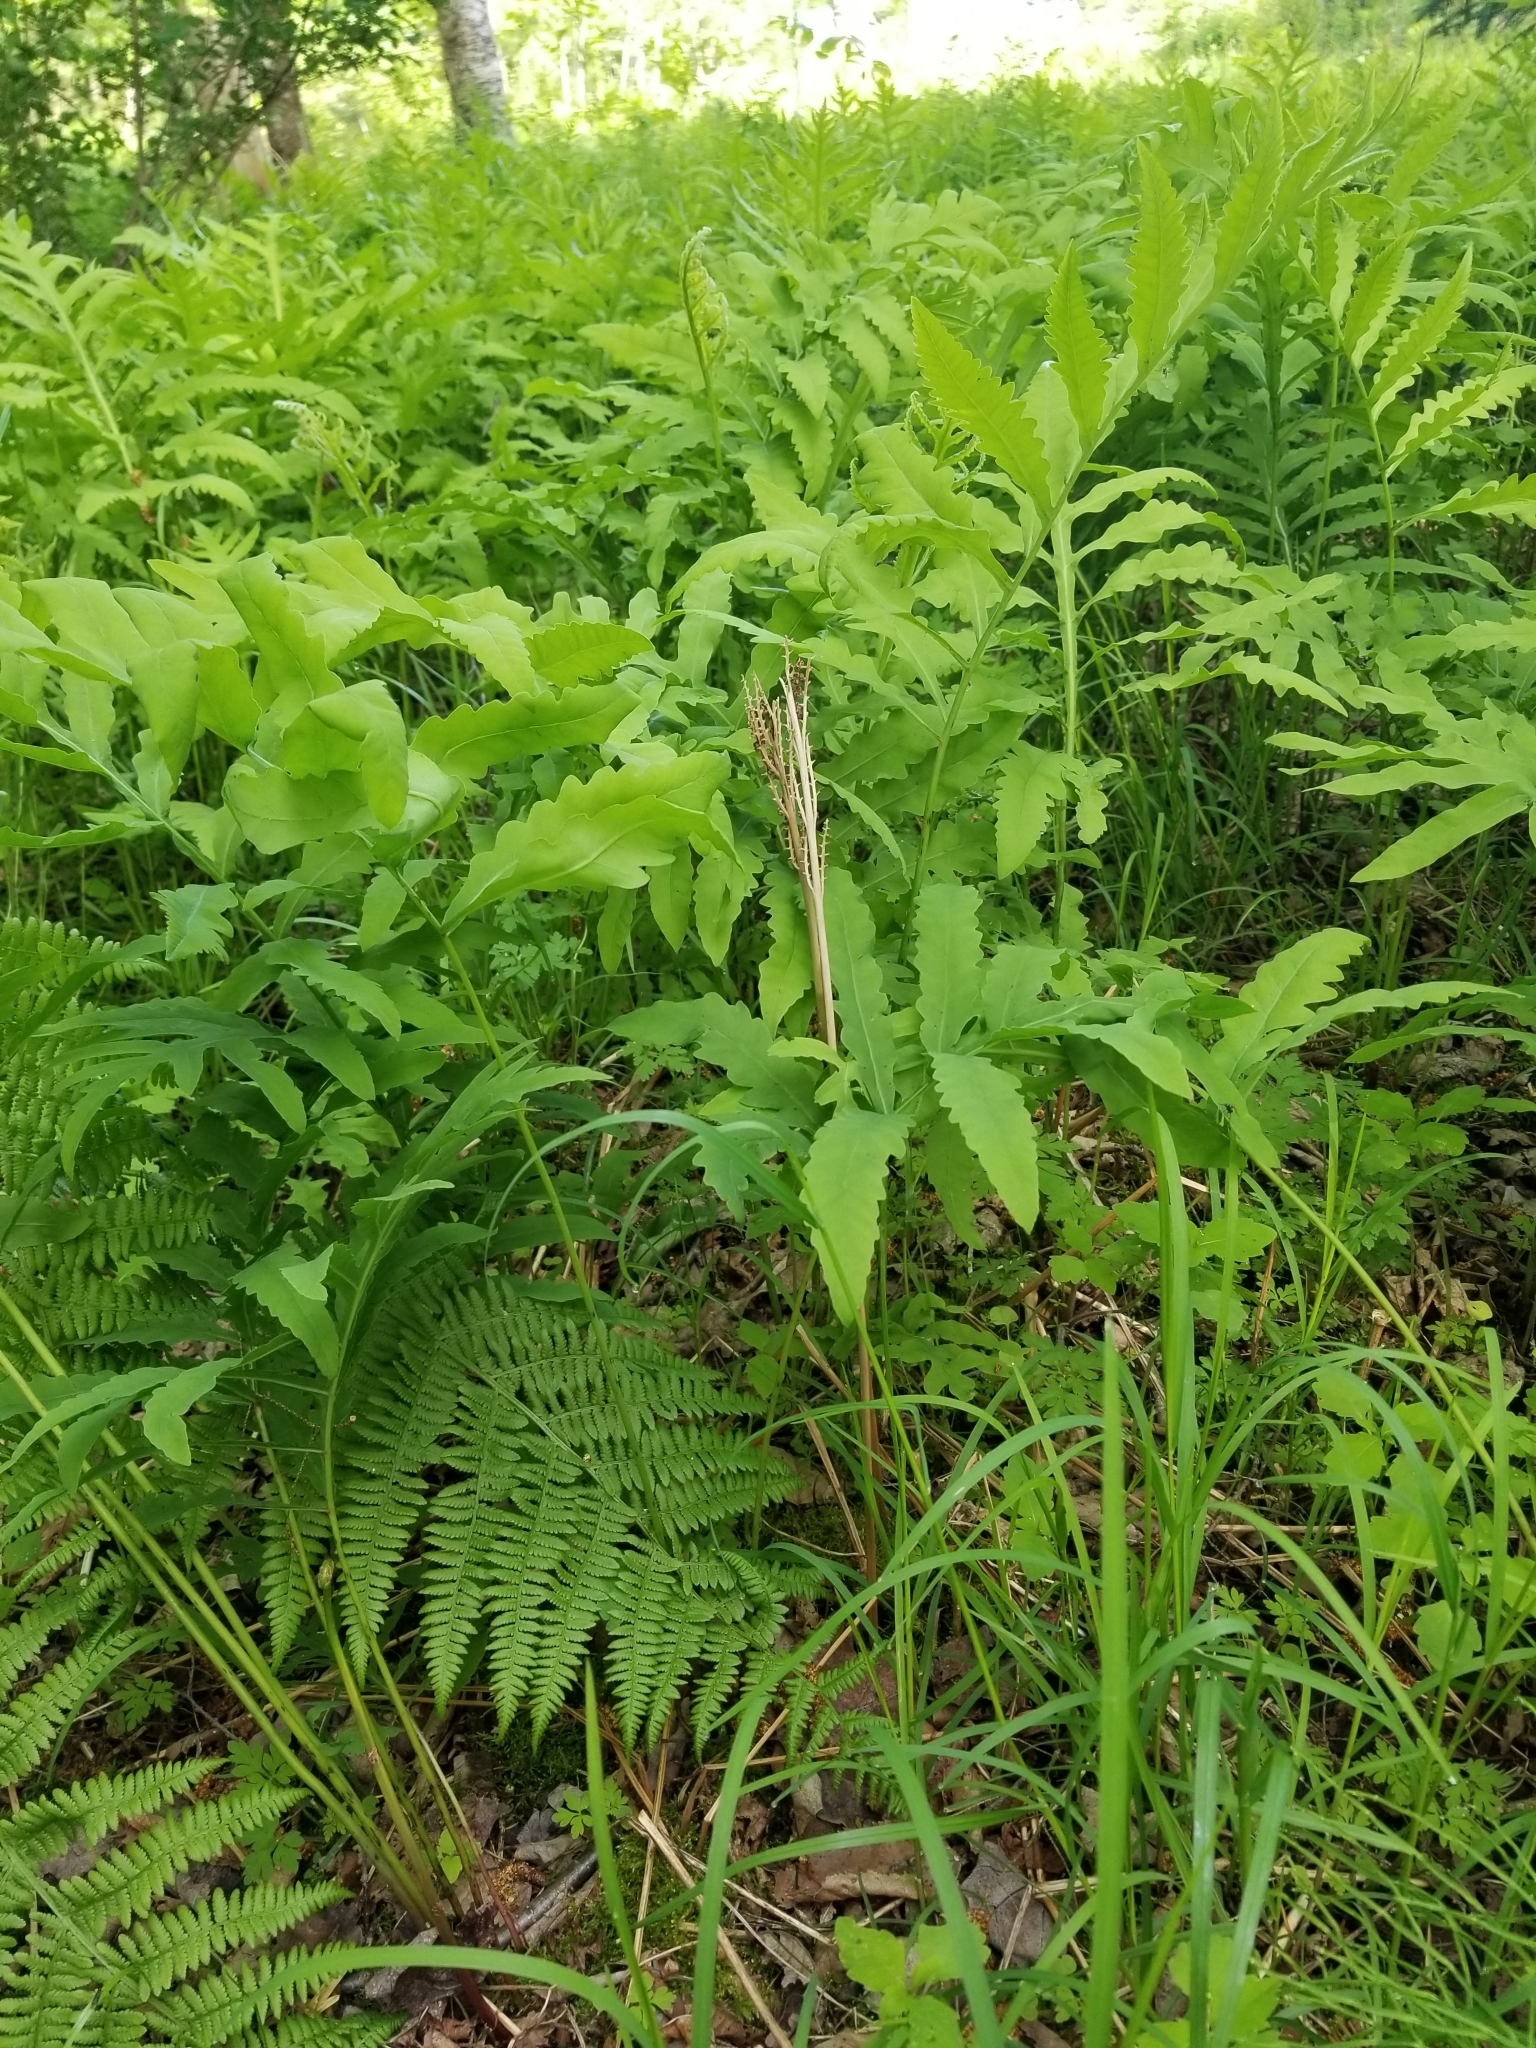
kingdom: Plantae
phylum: Tracheophyta
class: Polypodiopsida
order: Polypodiales
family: Onocleaceae
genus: Onoclea
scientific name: Onoclea sensibilis
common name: Sensitive fern
